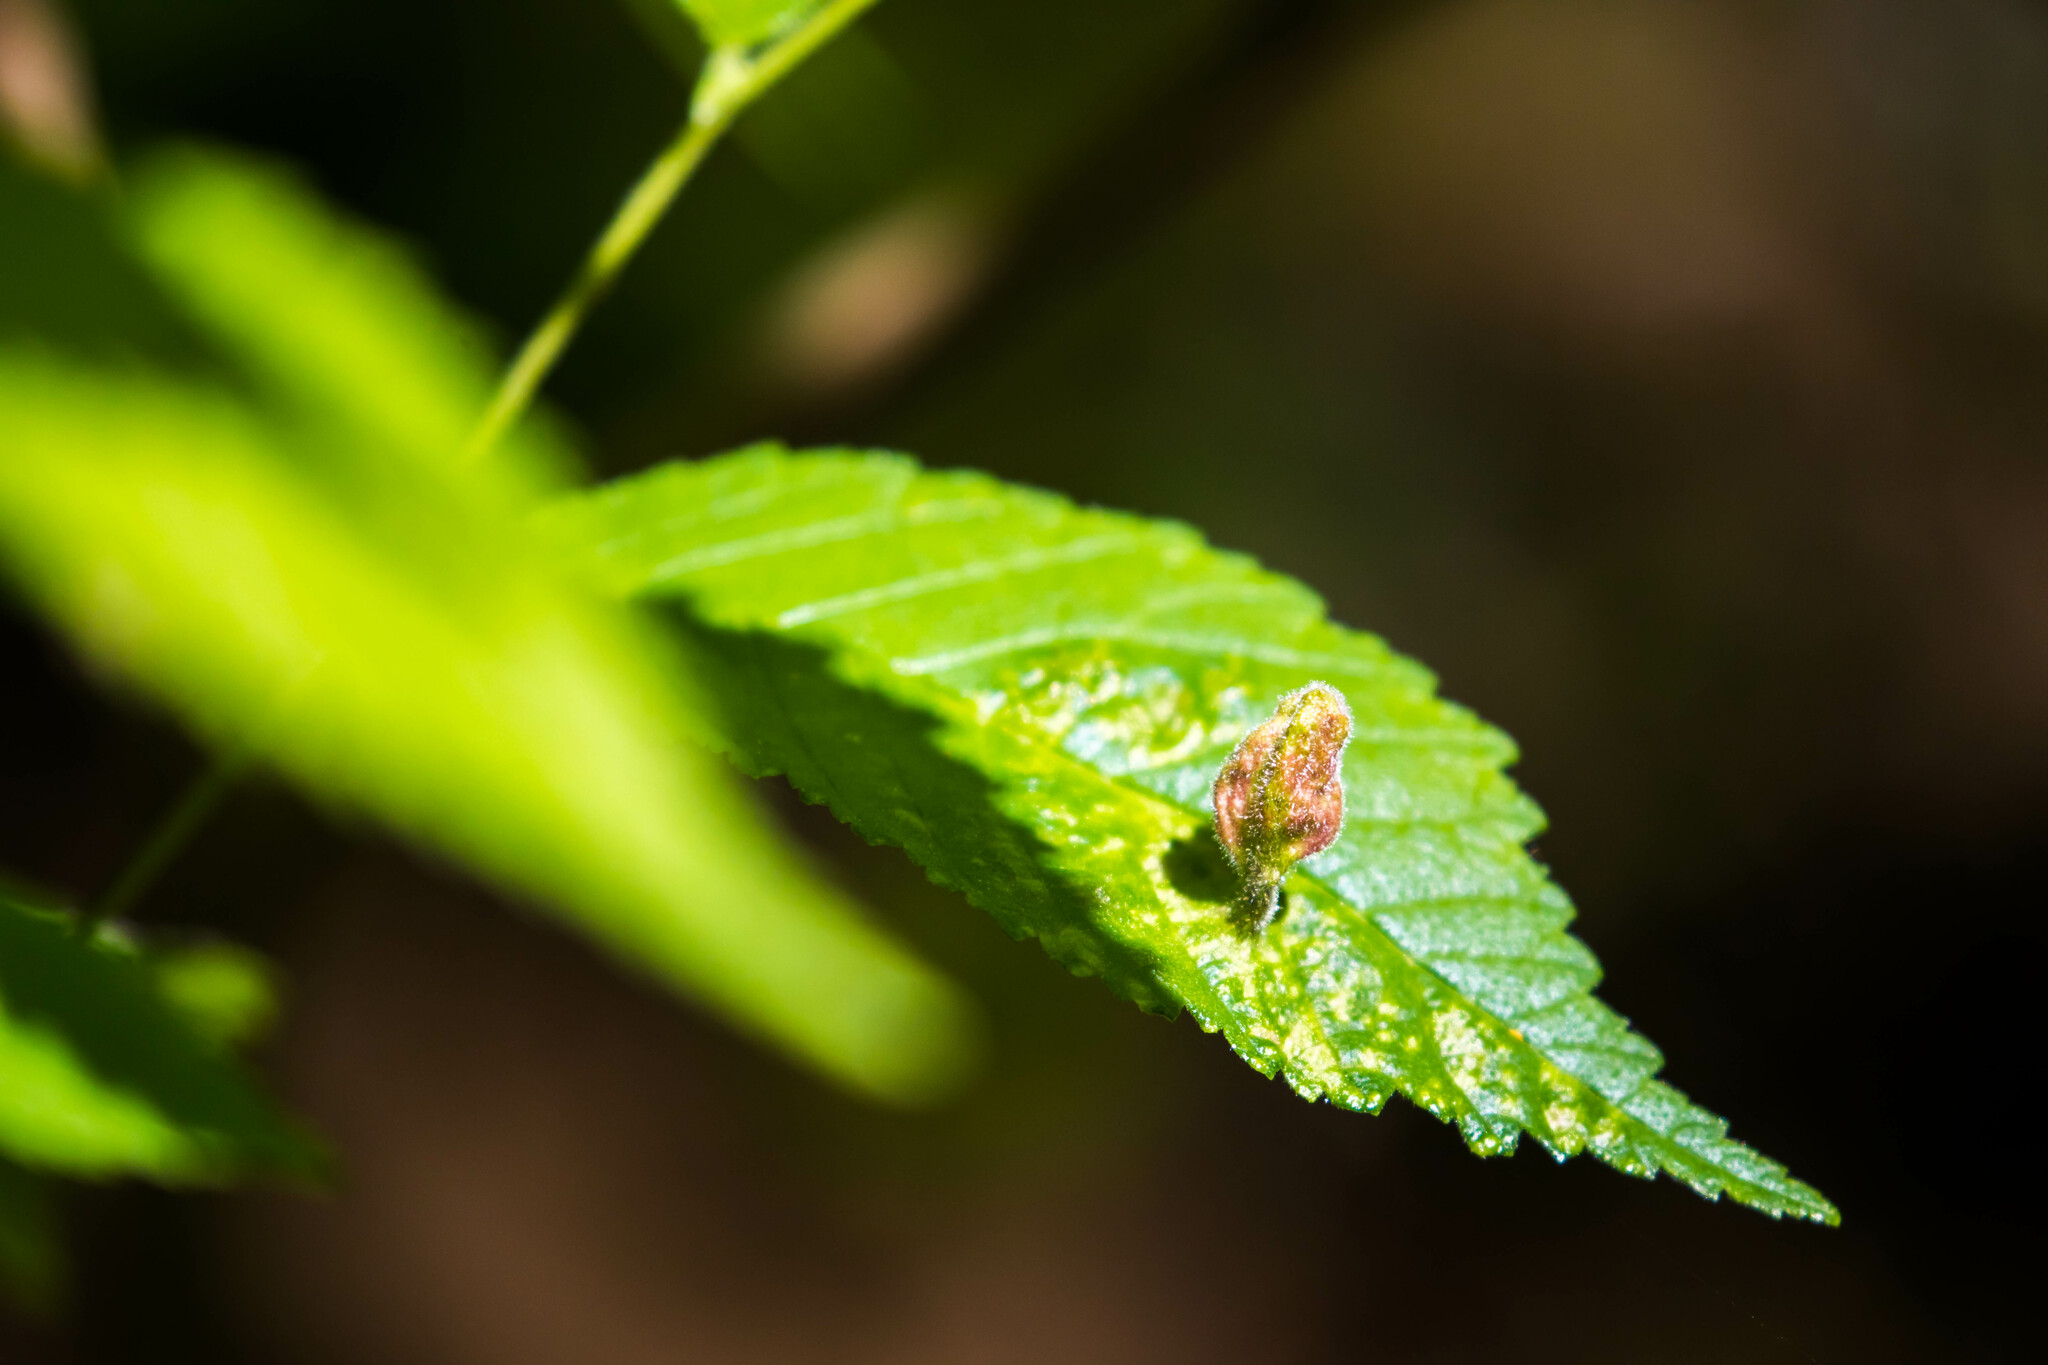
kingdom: Animalia
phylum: Arthropoda
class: Insecta
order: Hemiptera
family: Aphididae
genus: Tetraneura
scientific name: Tetraneura nigriabdominalis
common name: Aphid
